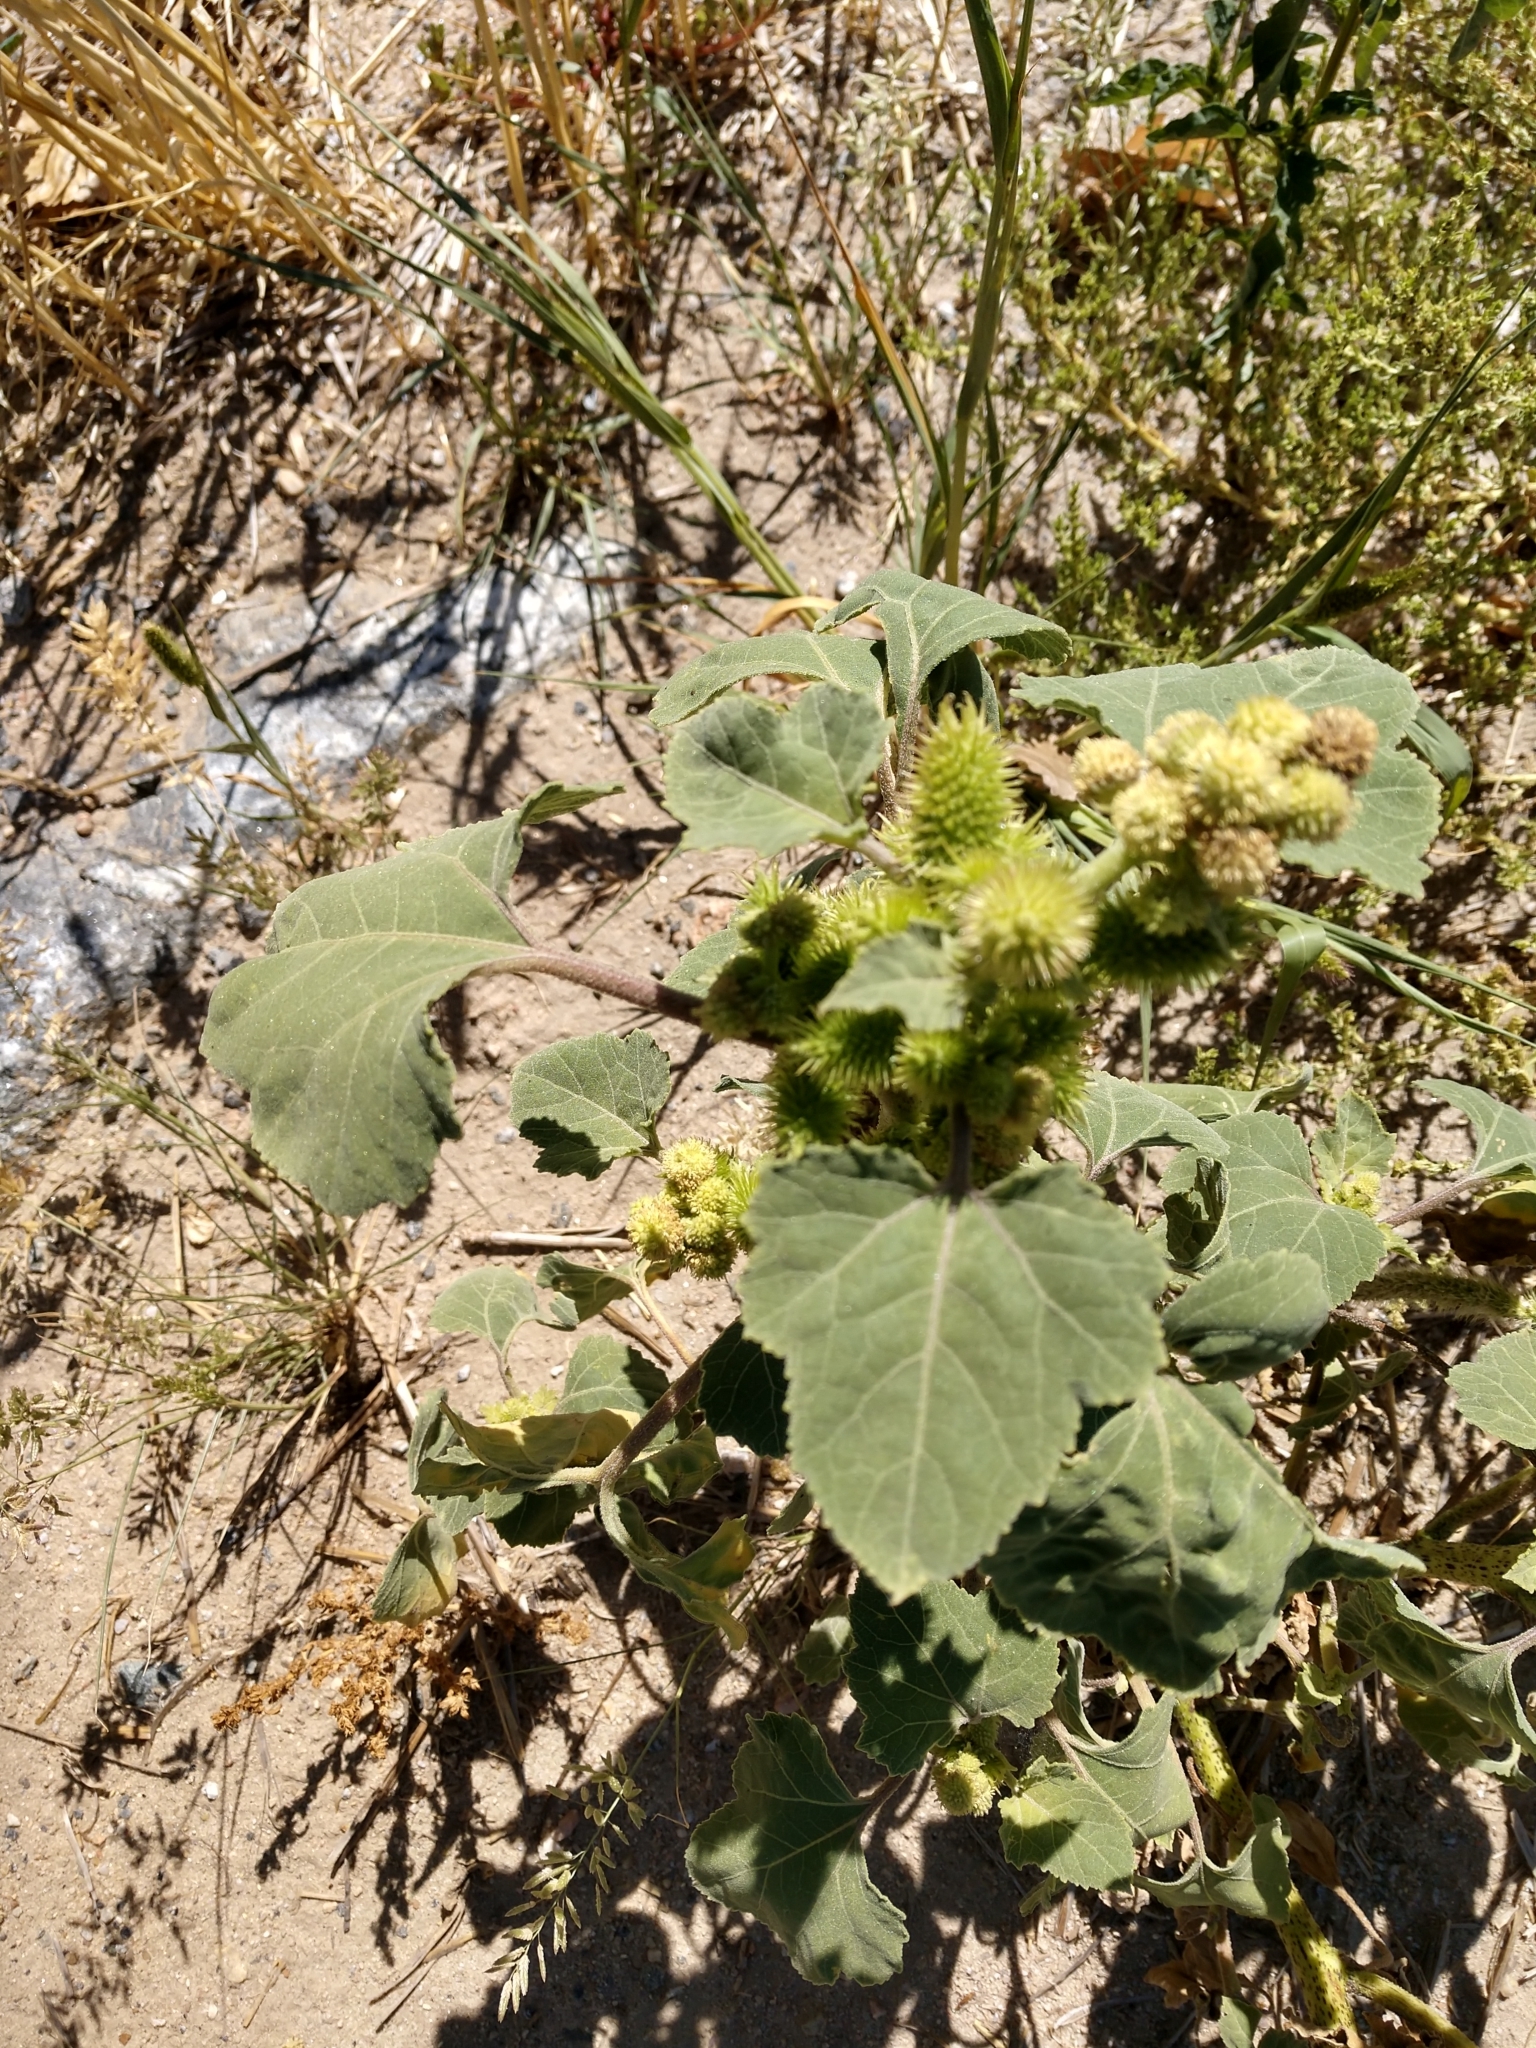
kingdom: Plantae
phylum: Tracheophyta
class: Magnoliopsida
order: Asterales
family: Asteraceae
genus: Xanthium
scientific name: Xanthium strumarium
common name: Rough cocklebur
